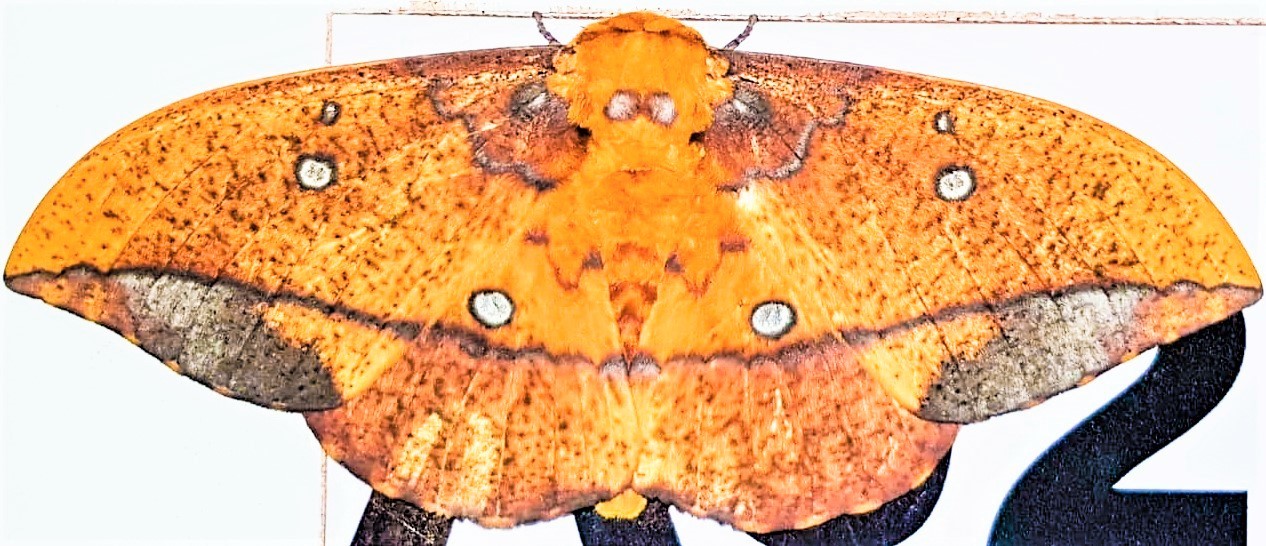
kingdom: Animalia
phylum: Arthropoda
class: Insecta
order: Lepidoptera
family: Saturniidae
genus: Eacles
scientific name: Eacles penelope
